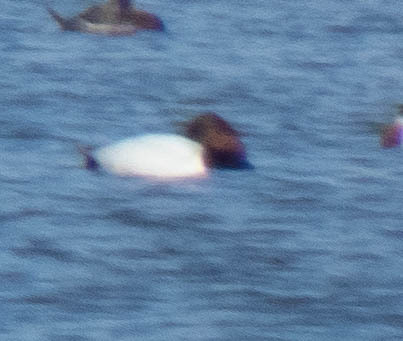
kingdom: Animalia
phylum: Chordata
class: Aves
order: Anseriformes
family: Anatidae
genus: Aythya
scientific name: Aythya valisineria
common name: Canvasback
